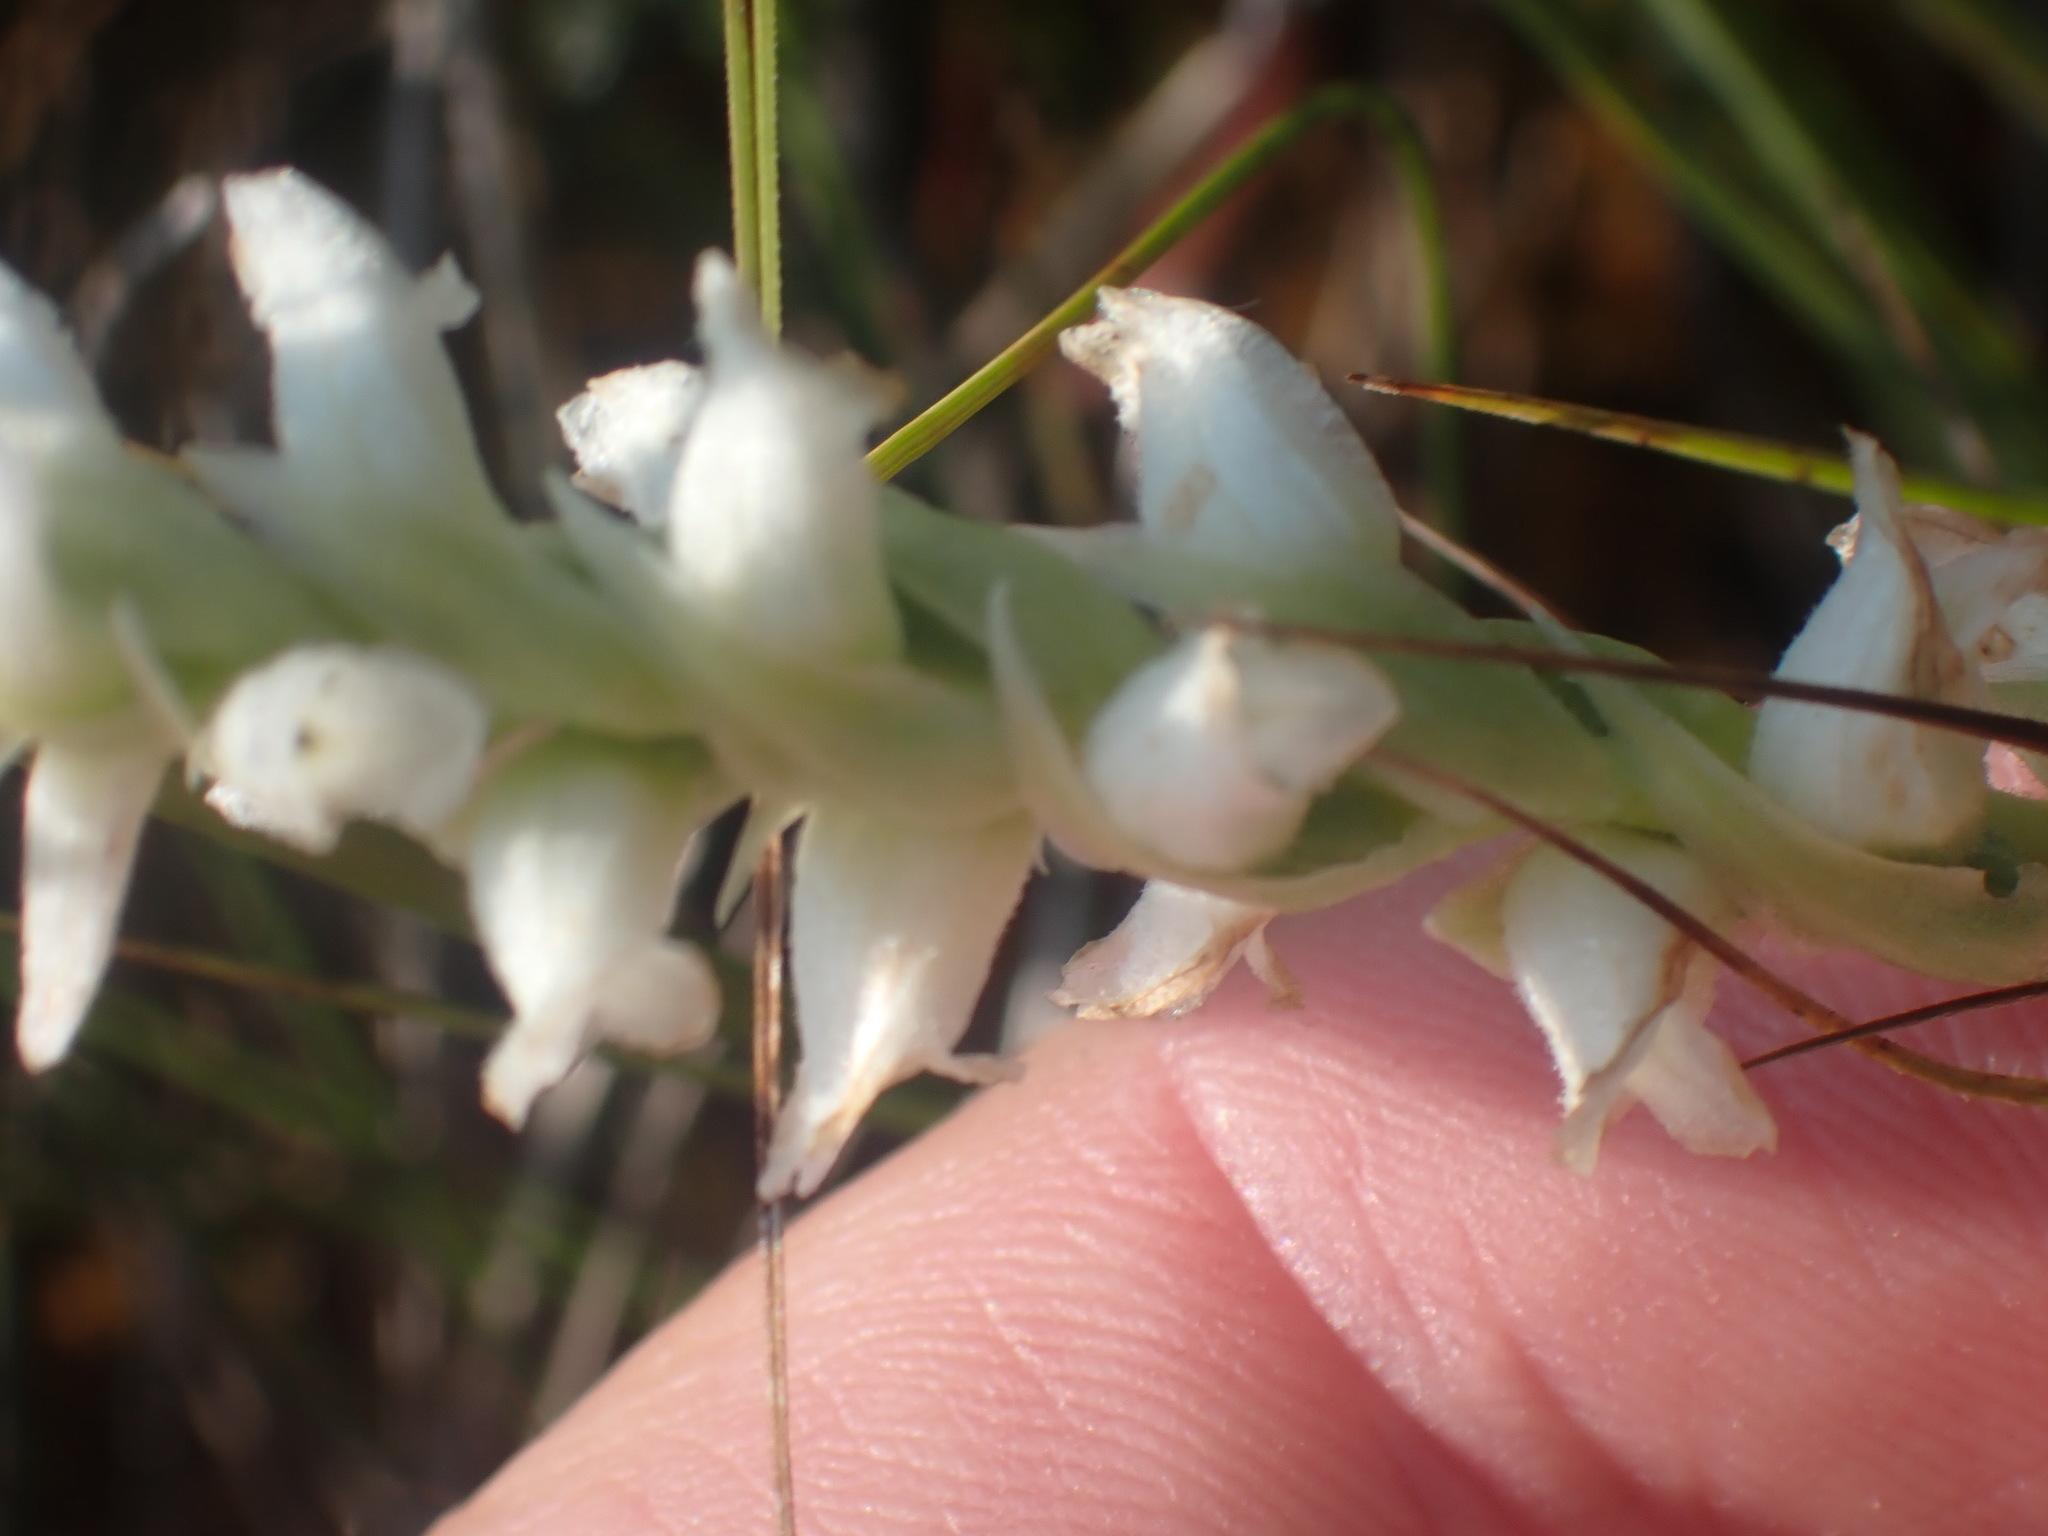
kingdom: Plantae
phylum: Tracheophyta
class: Liliopsida
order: Asparagales
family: Orchidaceae
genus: Spiranthes
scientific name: Spiranthes romanzoffiana
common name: Irish lady's-tresses
